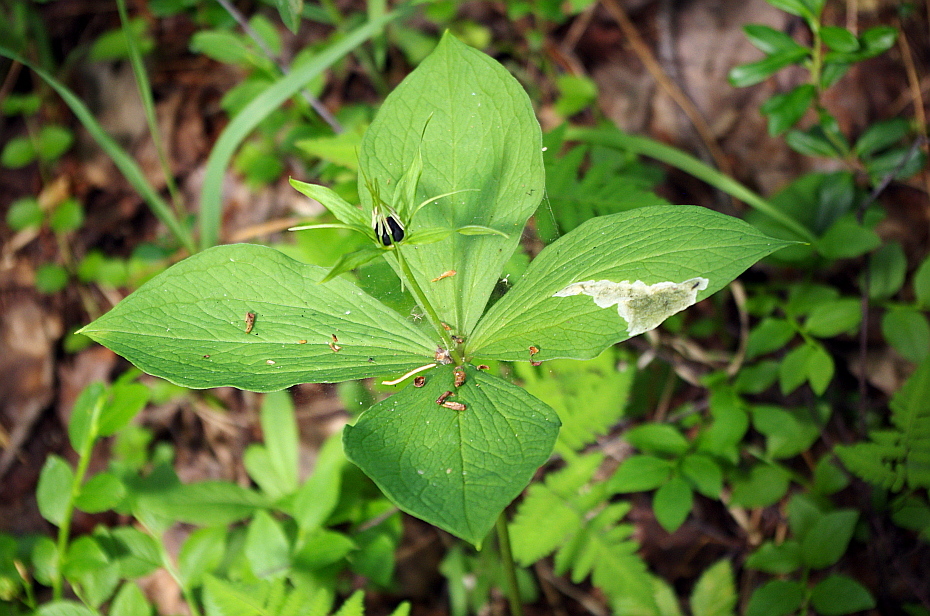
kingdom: Plantae
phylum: Tracheophyta
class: Liliopsida
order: Liliales
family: Melanthiaceae
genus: Paris
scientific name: Paris quadrifolia
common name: Herb-paris
